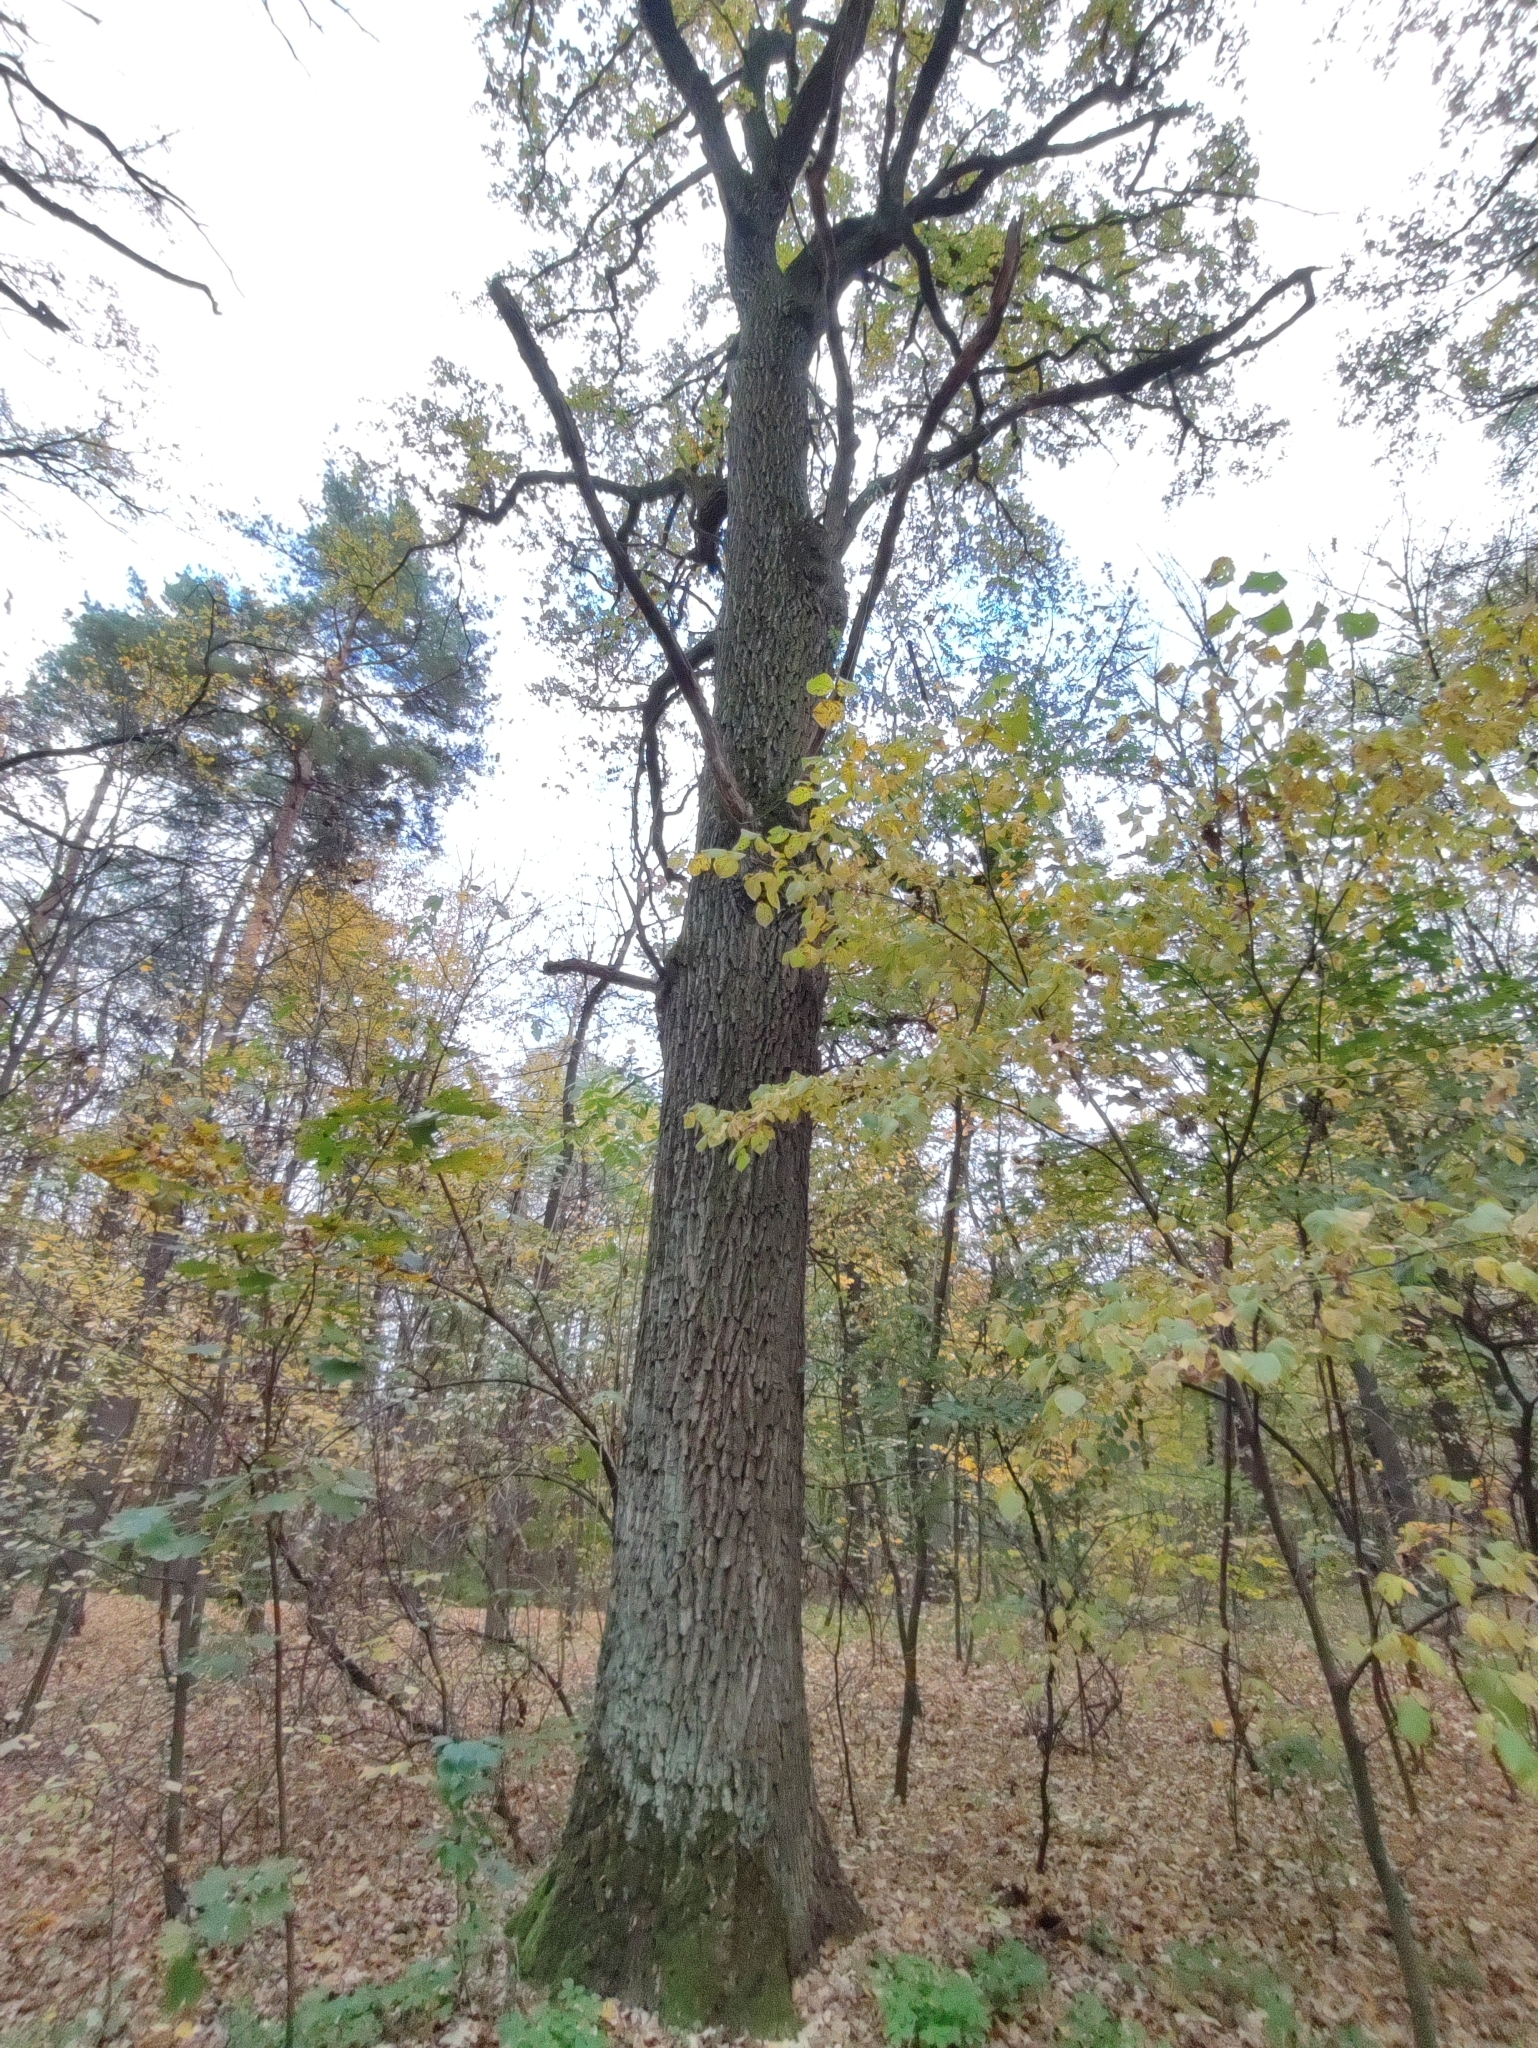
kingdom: Plantae
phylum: Tracheophyta
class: Magnoliopsida
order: Fagales
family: Fagaceae
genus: Quercus
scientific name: Quercus robur
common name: Pedunculate oak
